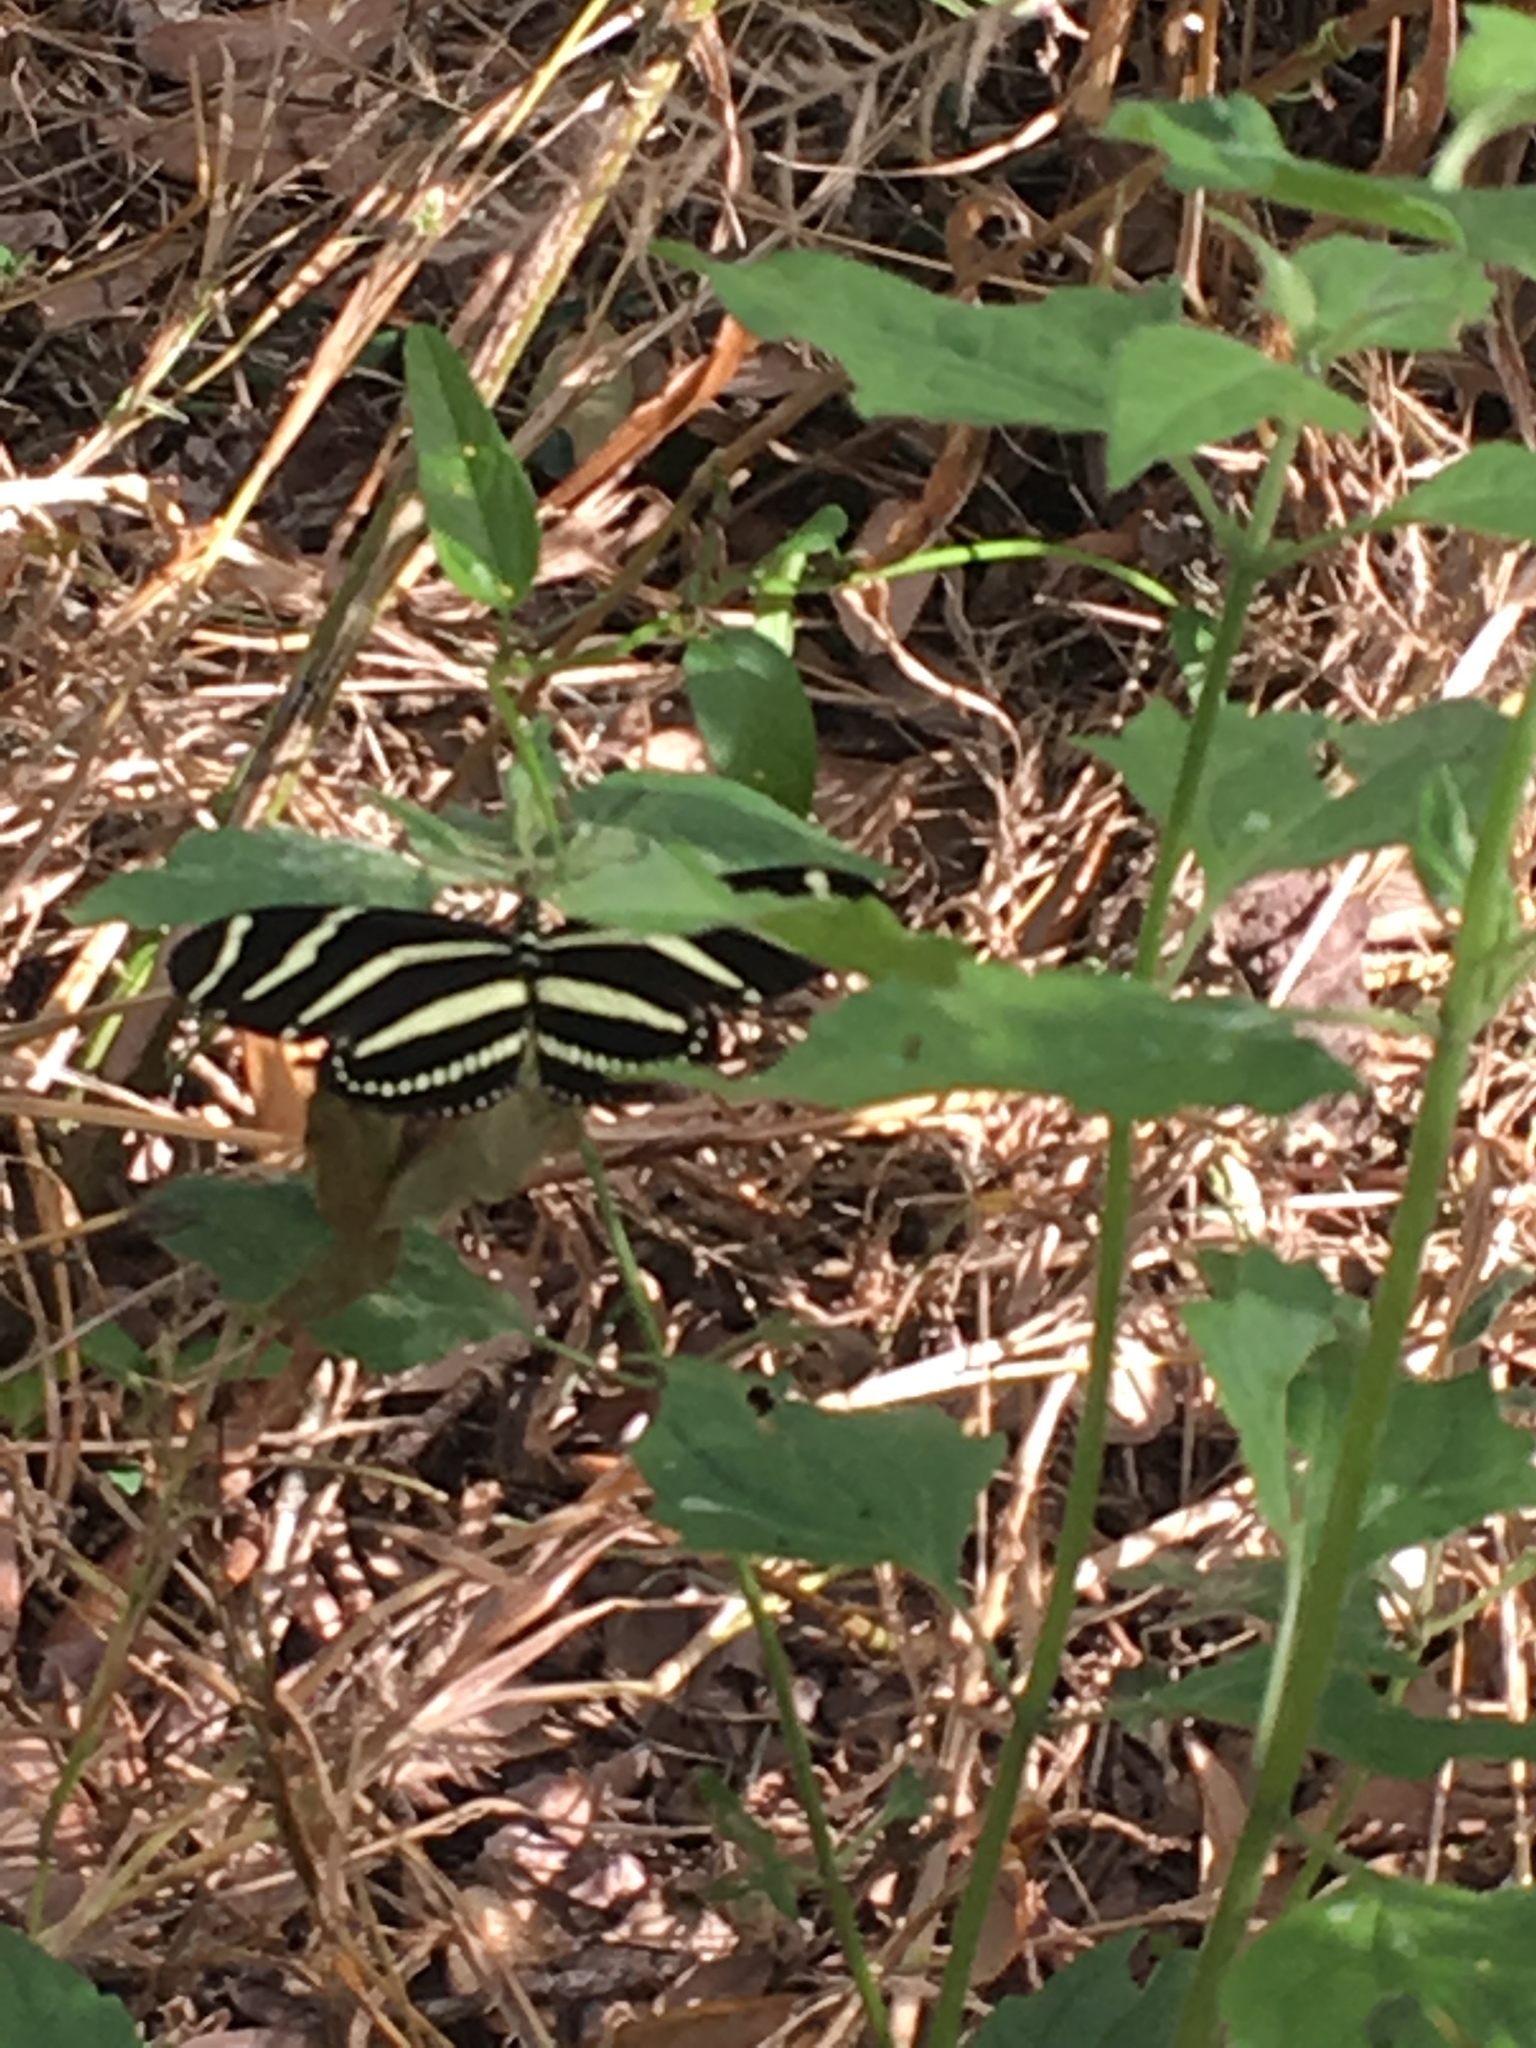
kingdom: Animalia
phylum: Arthropoda
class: Insecta
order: Lepidoptera
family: Nymphalidae
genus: Heliconius
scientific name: Heliconius charithonia
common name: Zebra long wing
